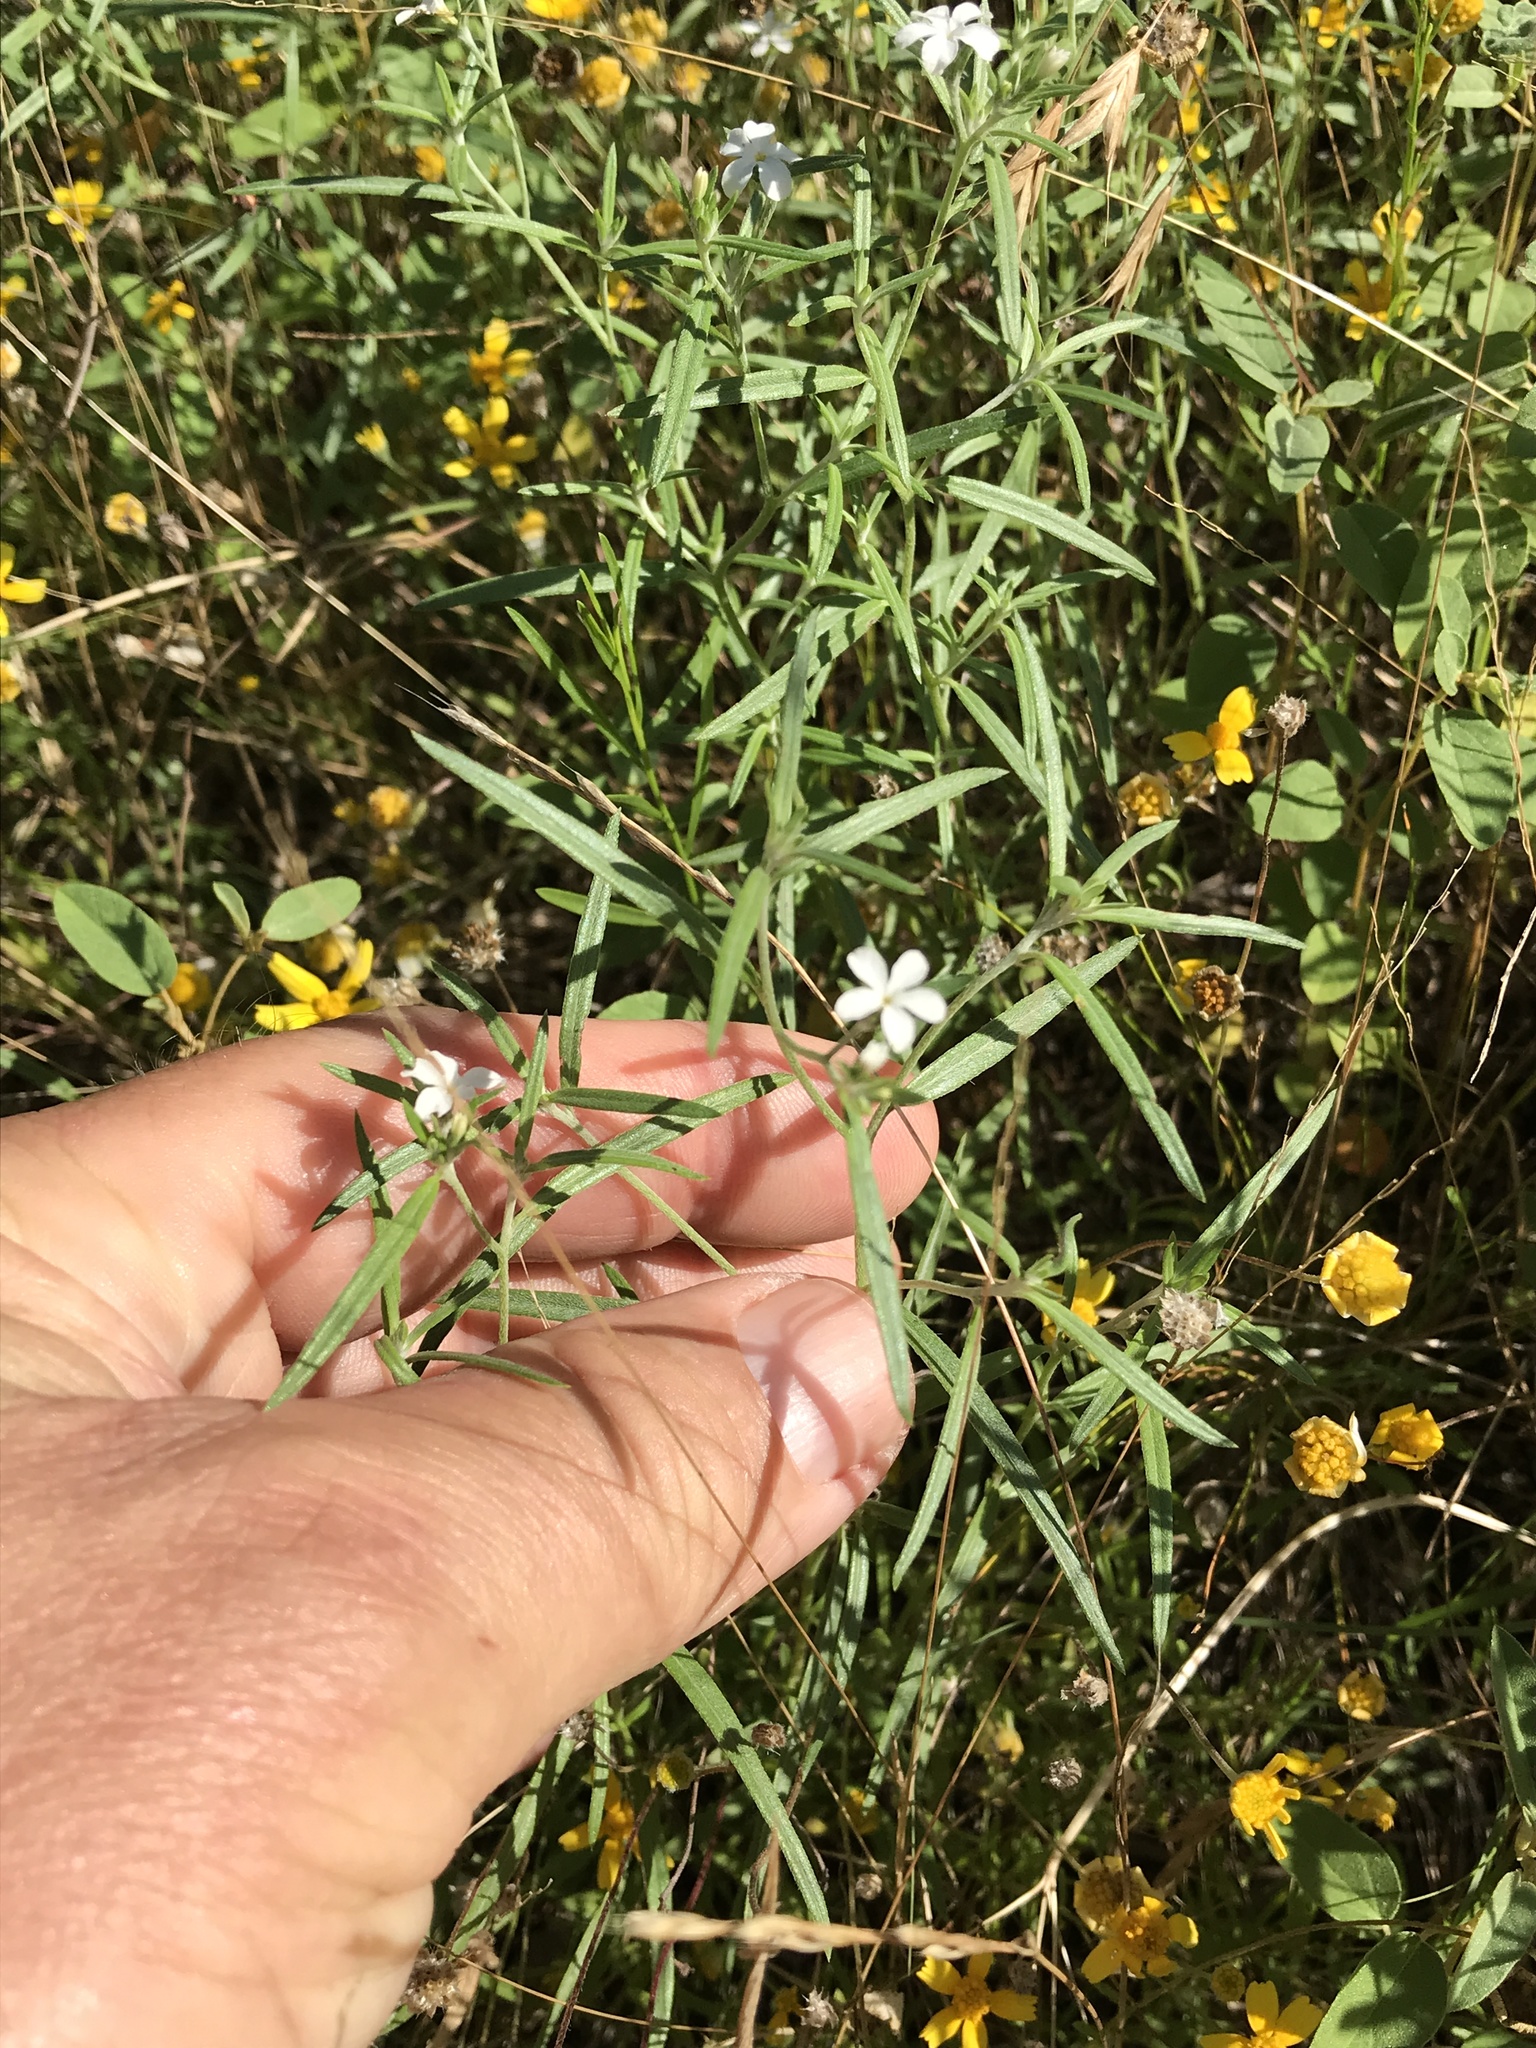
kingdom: Plantae
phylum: Tracheophyta
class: Magnoliopsida
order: Boraginales
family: Heliotropiaceae
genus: Euploca
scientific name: Euploca tenella
